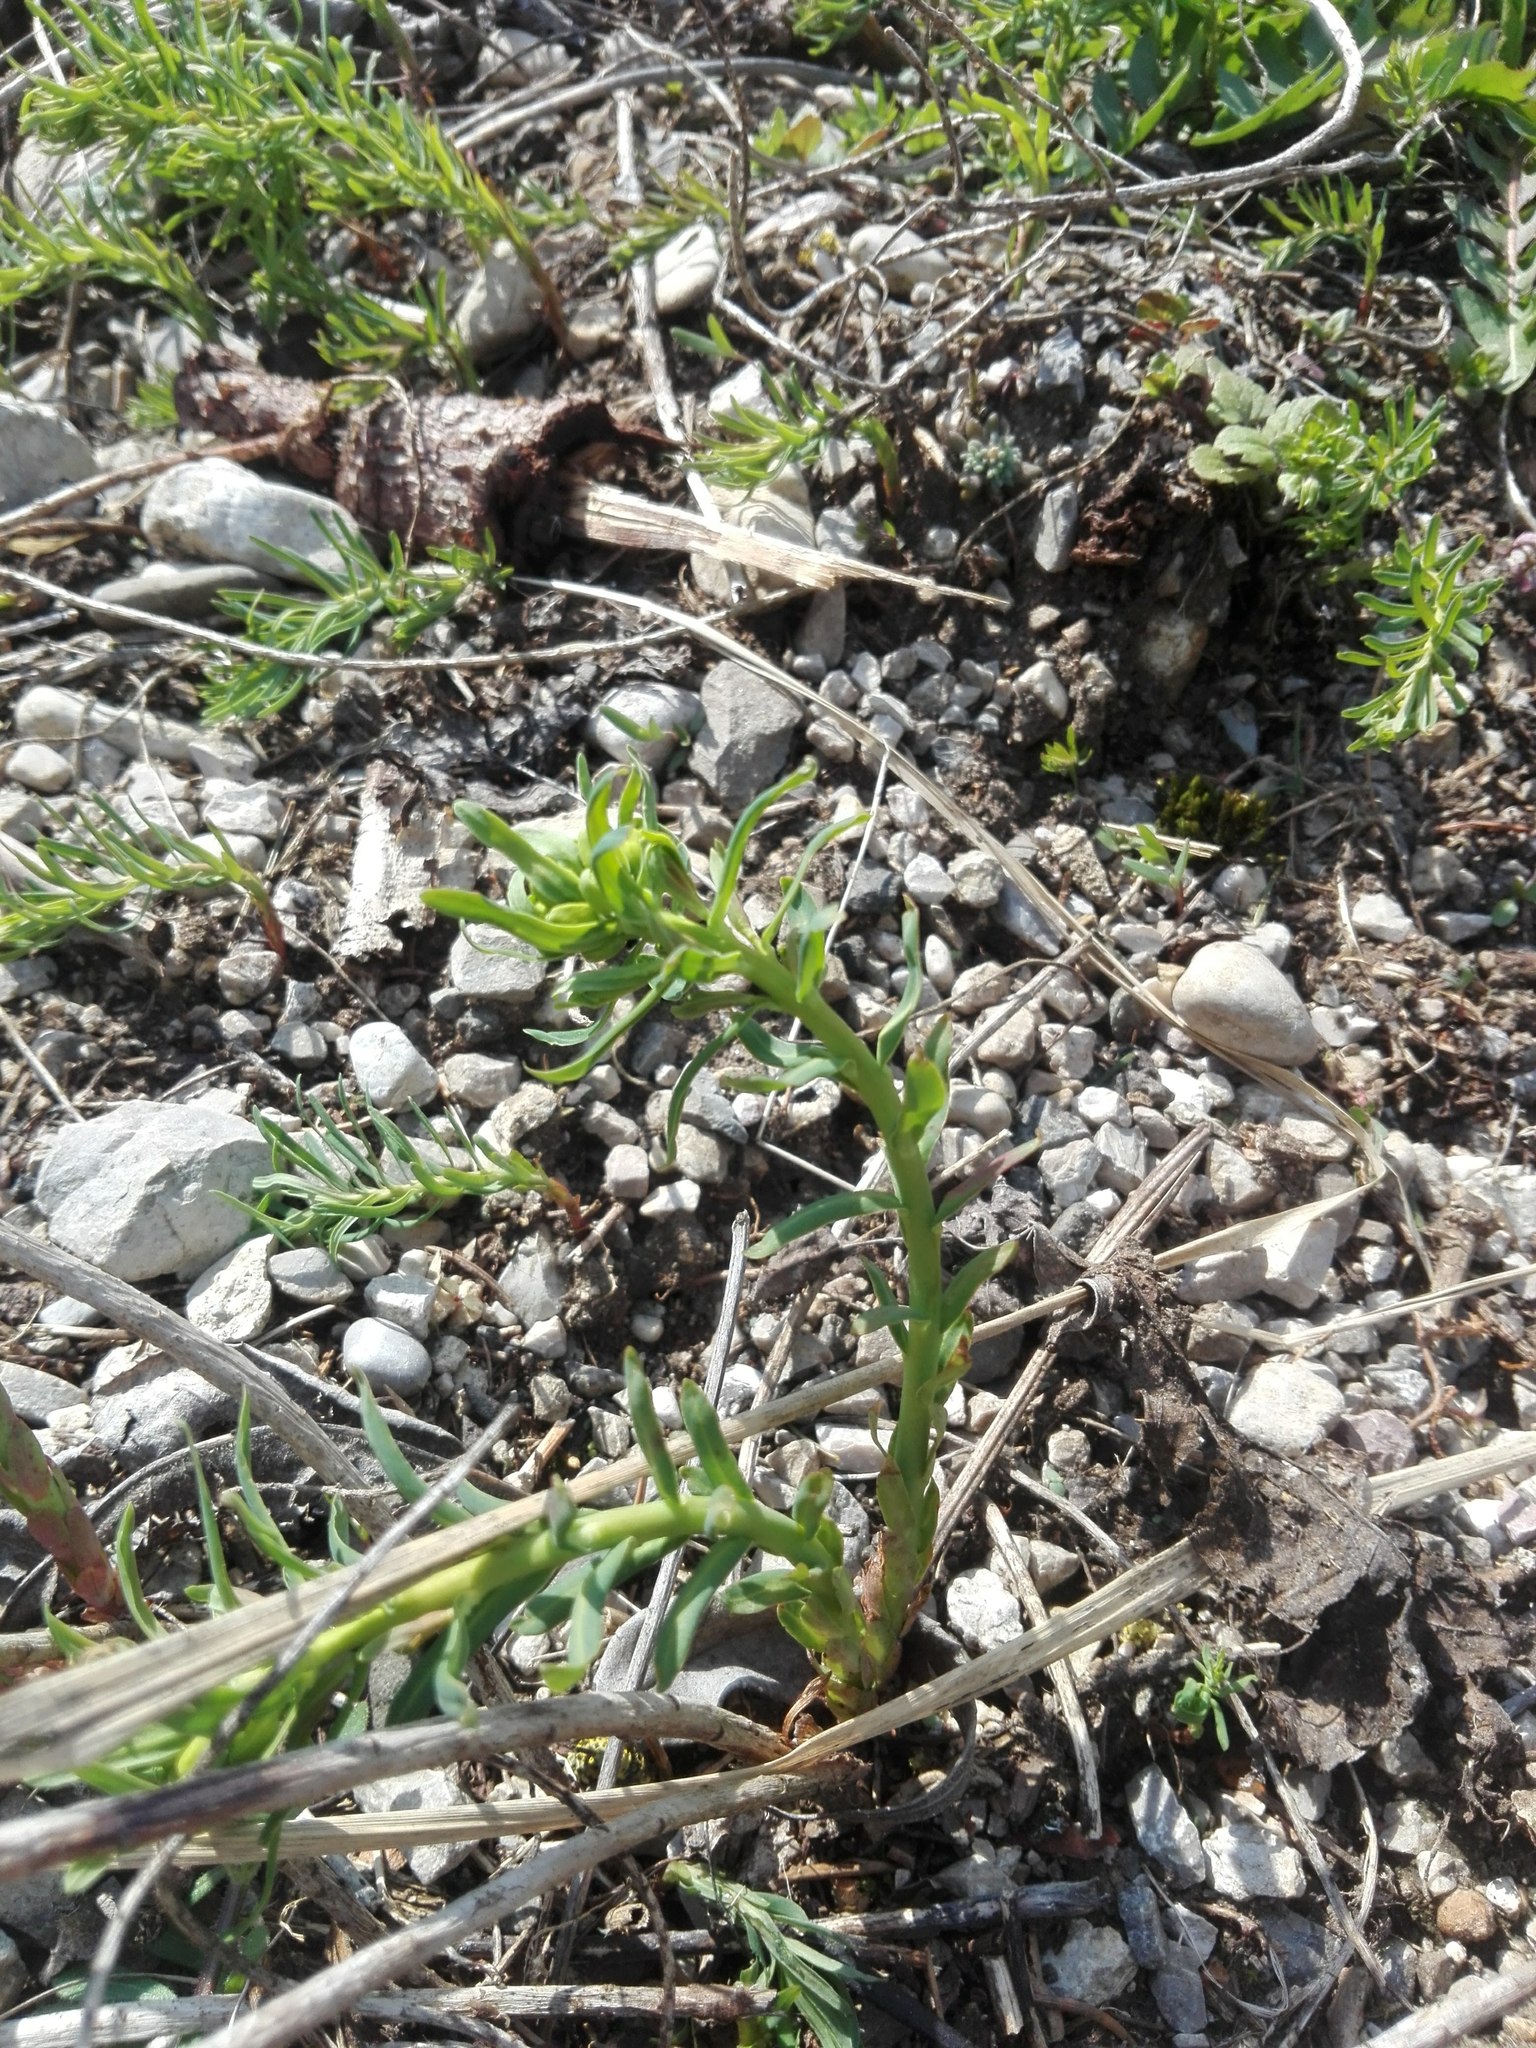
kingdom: Plantae
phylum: Tracheophyta
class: Magnoliopsida
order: Malpighiales
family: Euphorbiaceae
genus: Euphorbia
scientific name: Euphorbia cyparissias
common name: Cypress spurge
